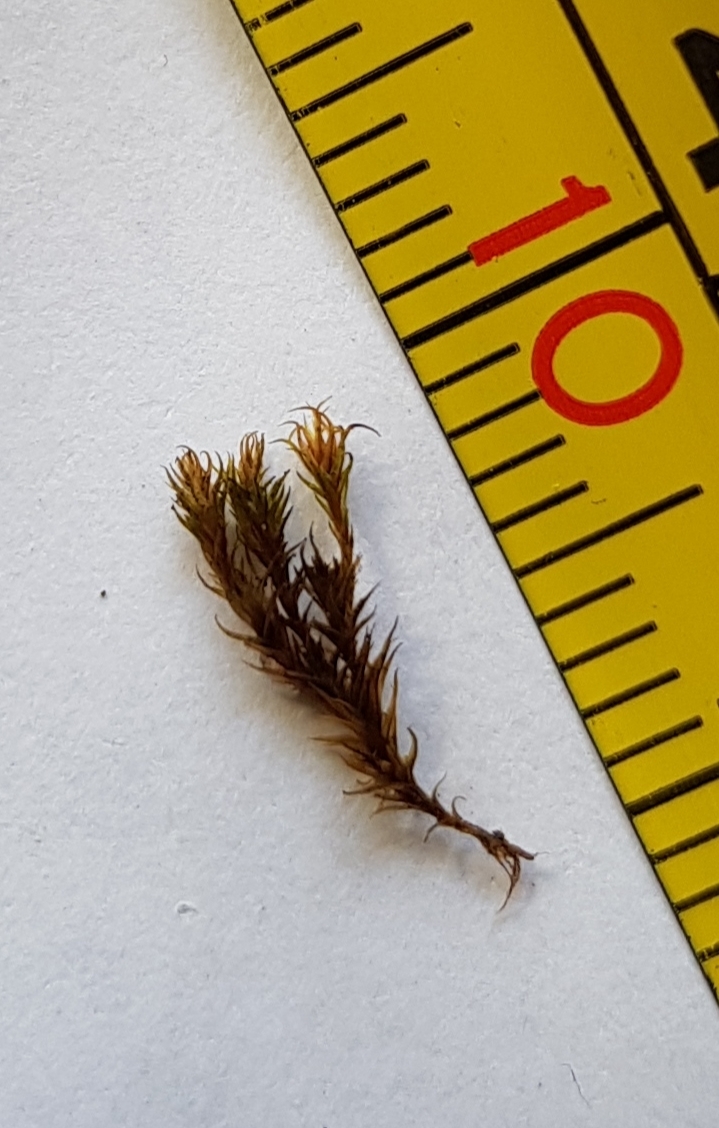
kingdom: Plantae
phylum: Bryophyta
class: Bryopsida
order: Dicranales
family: Ditrichaceae
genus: Ceratodon
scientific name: Ceratodon purpureus
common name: Redshank
